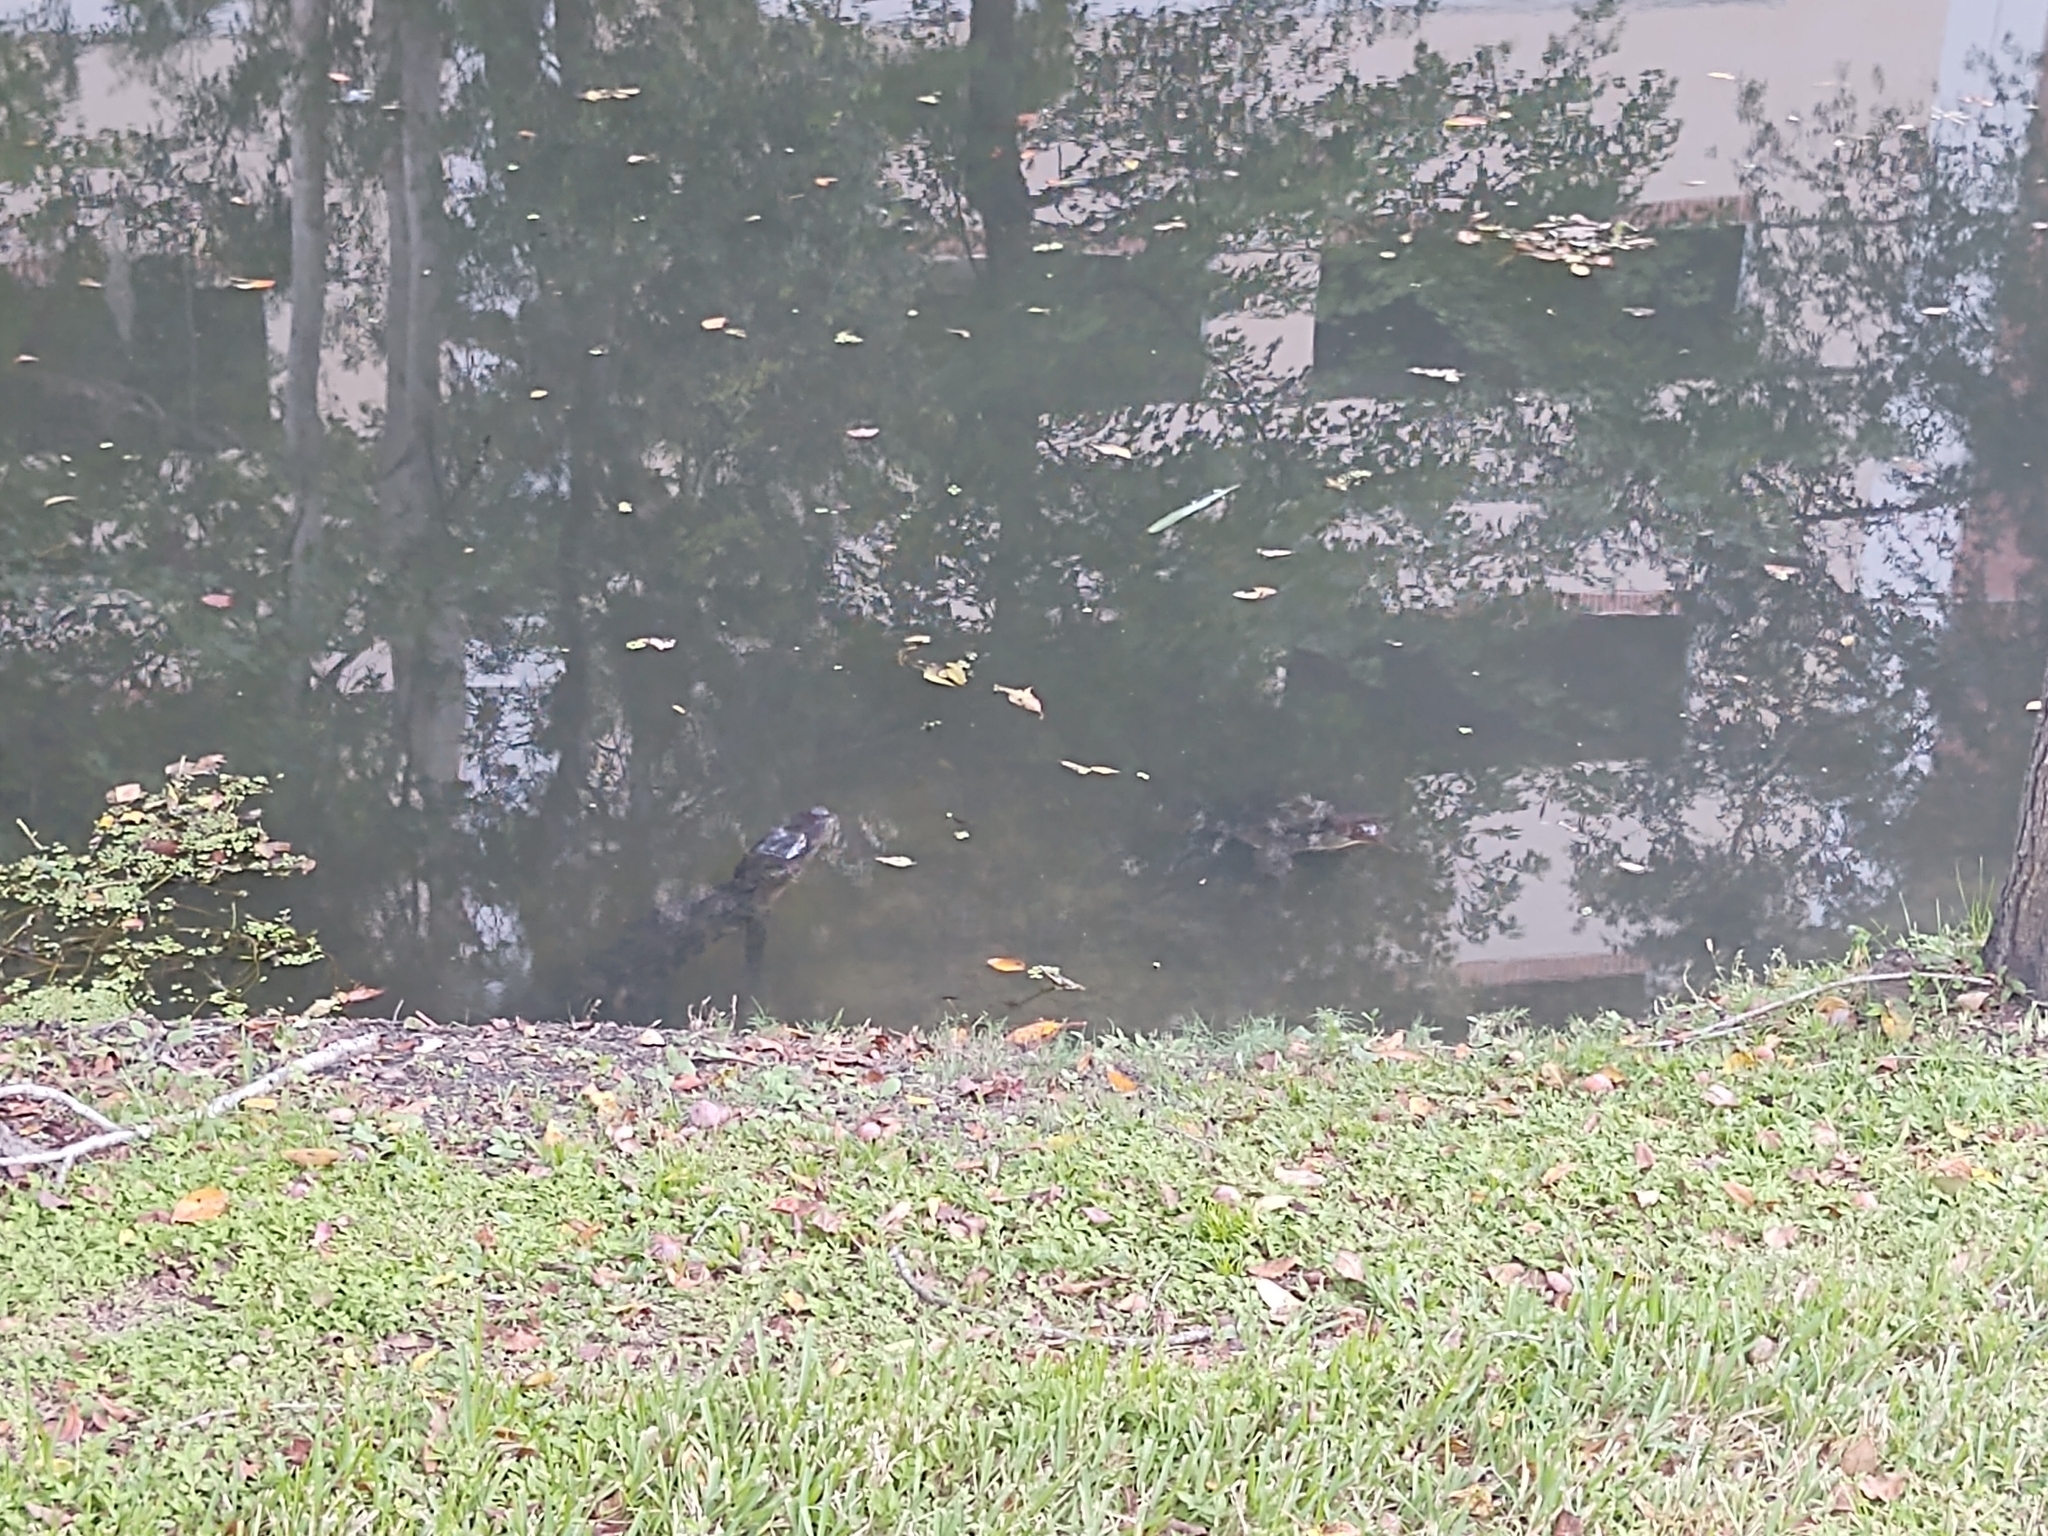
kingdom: Animalia
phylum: Chordata
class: Crocodylia
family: Alligatoridae
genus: Alligator
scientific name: Alligator mississippiensis
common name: American alligator
